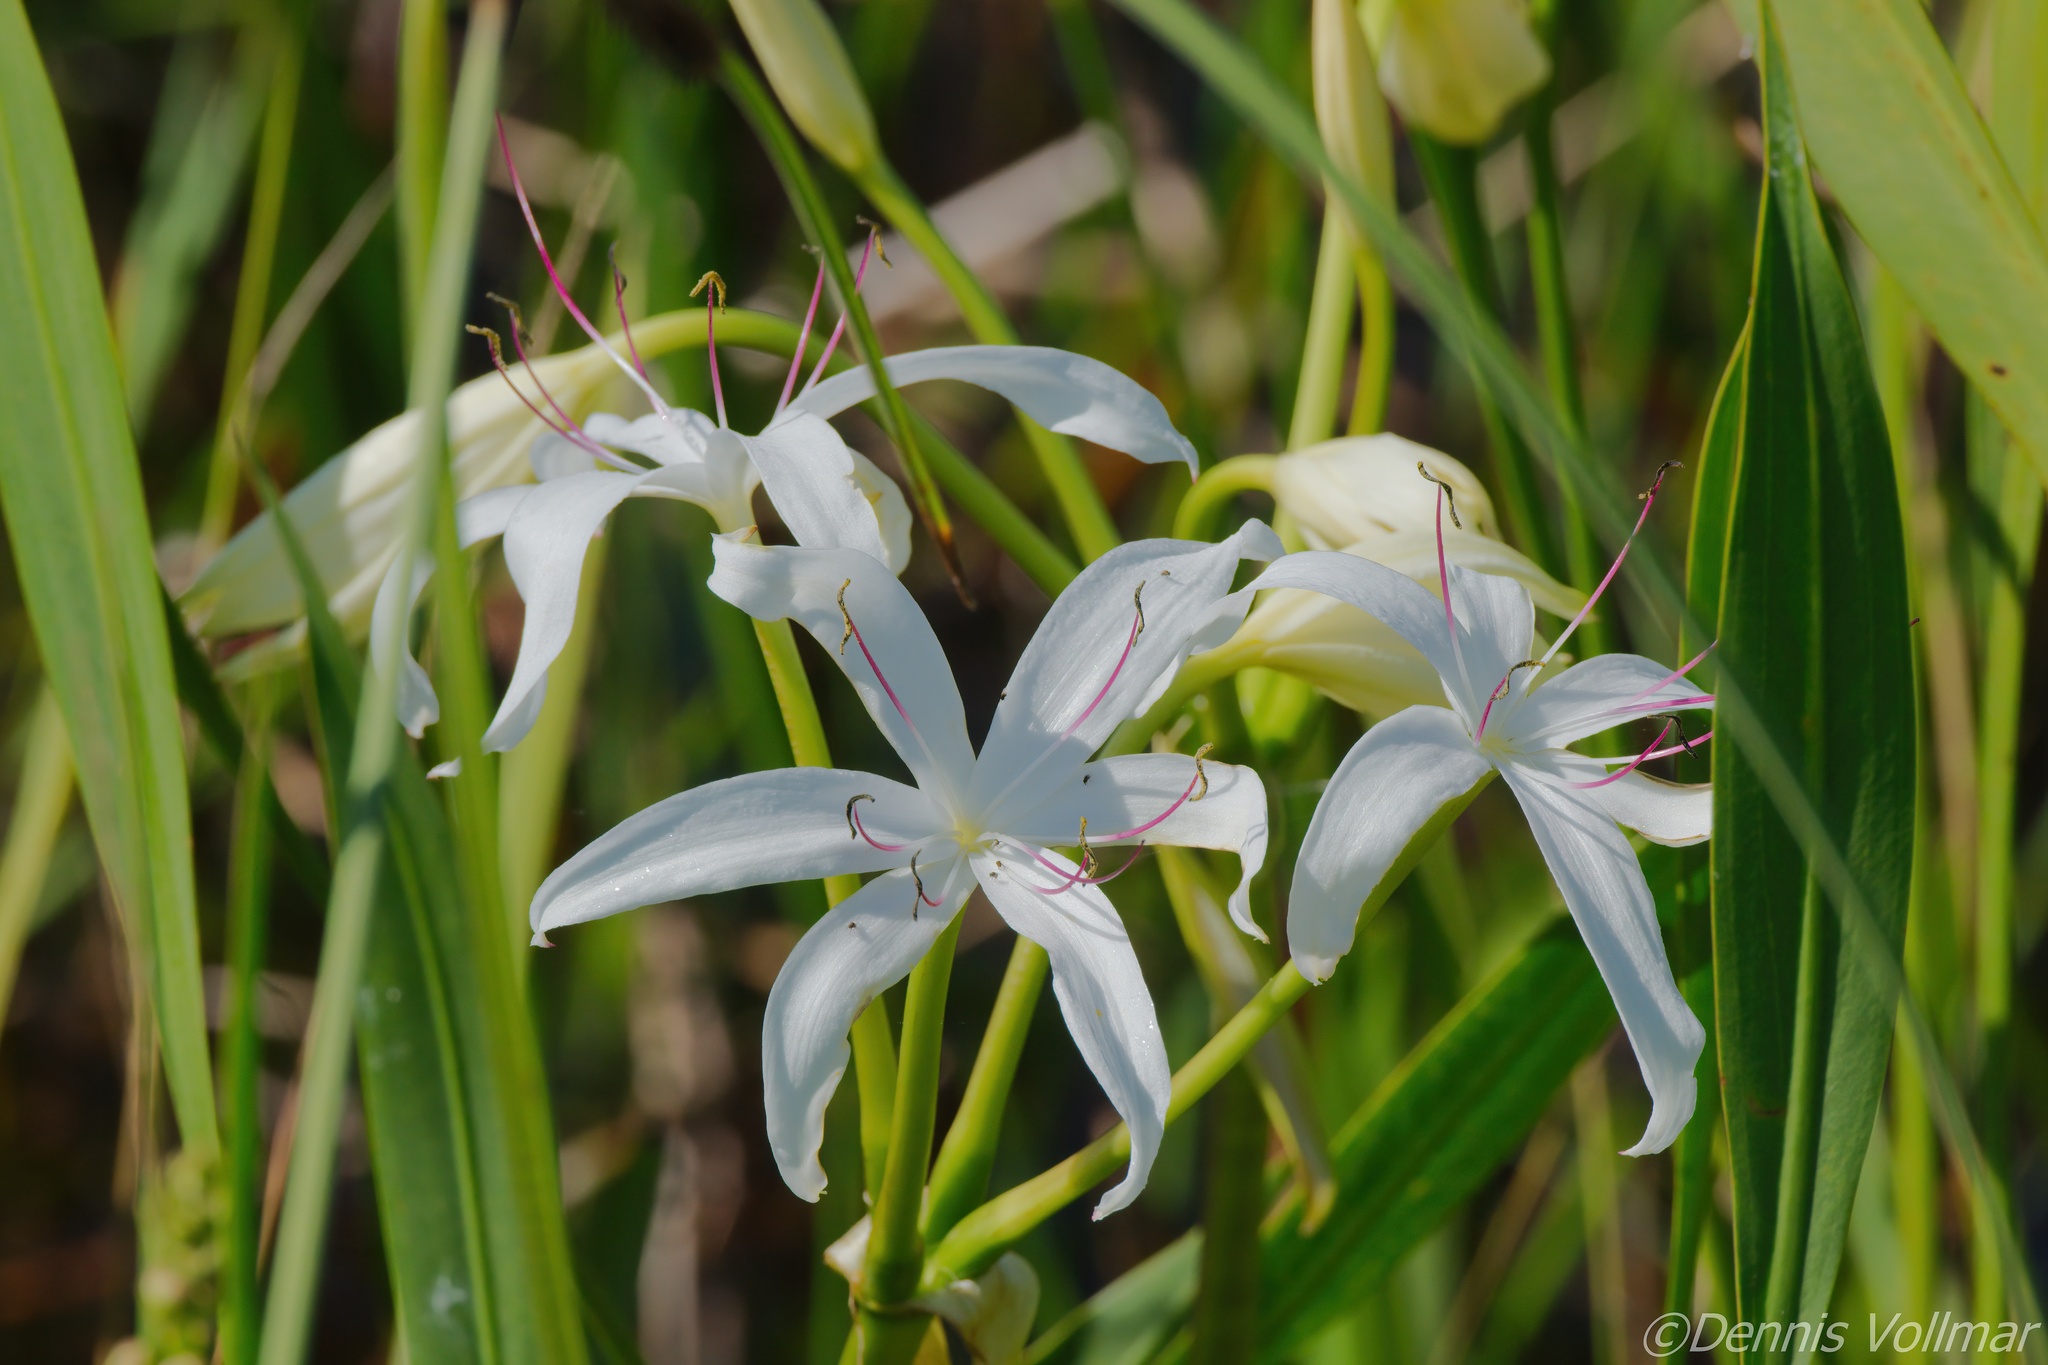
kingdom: Plantae
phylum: Tracheophyta
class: Liliopsida
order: Asparagales
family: Amaryllidaceae
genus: Crinum
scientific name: Crinum americanum
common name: Florida swamp-lily
